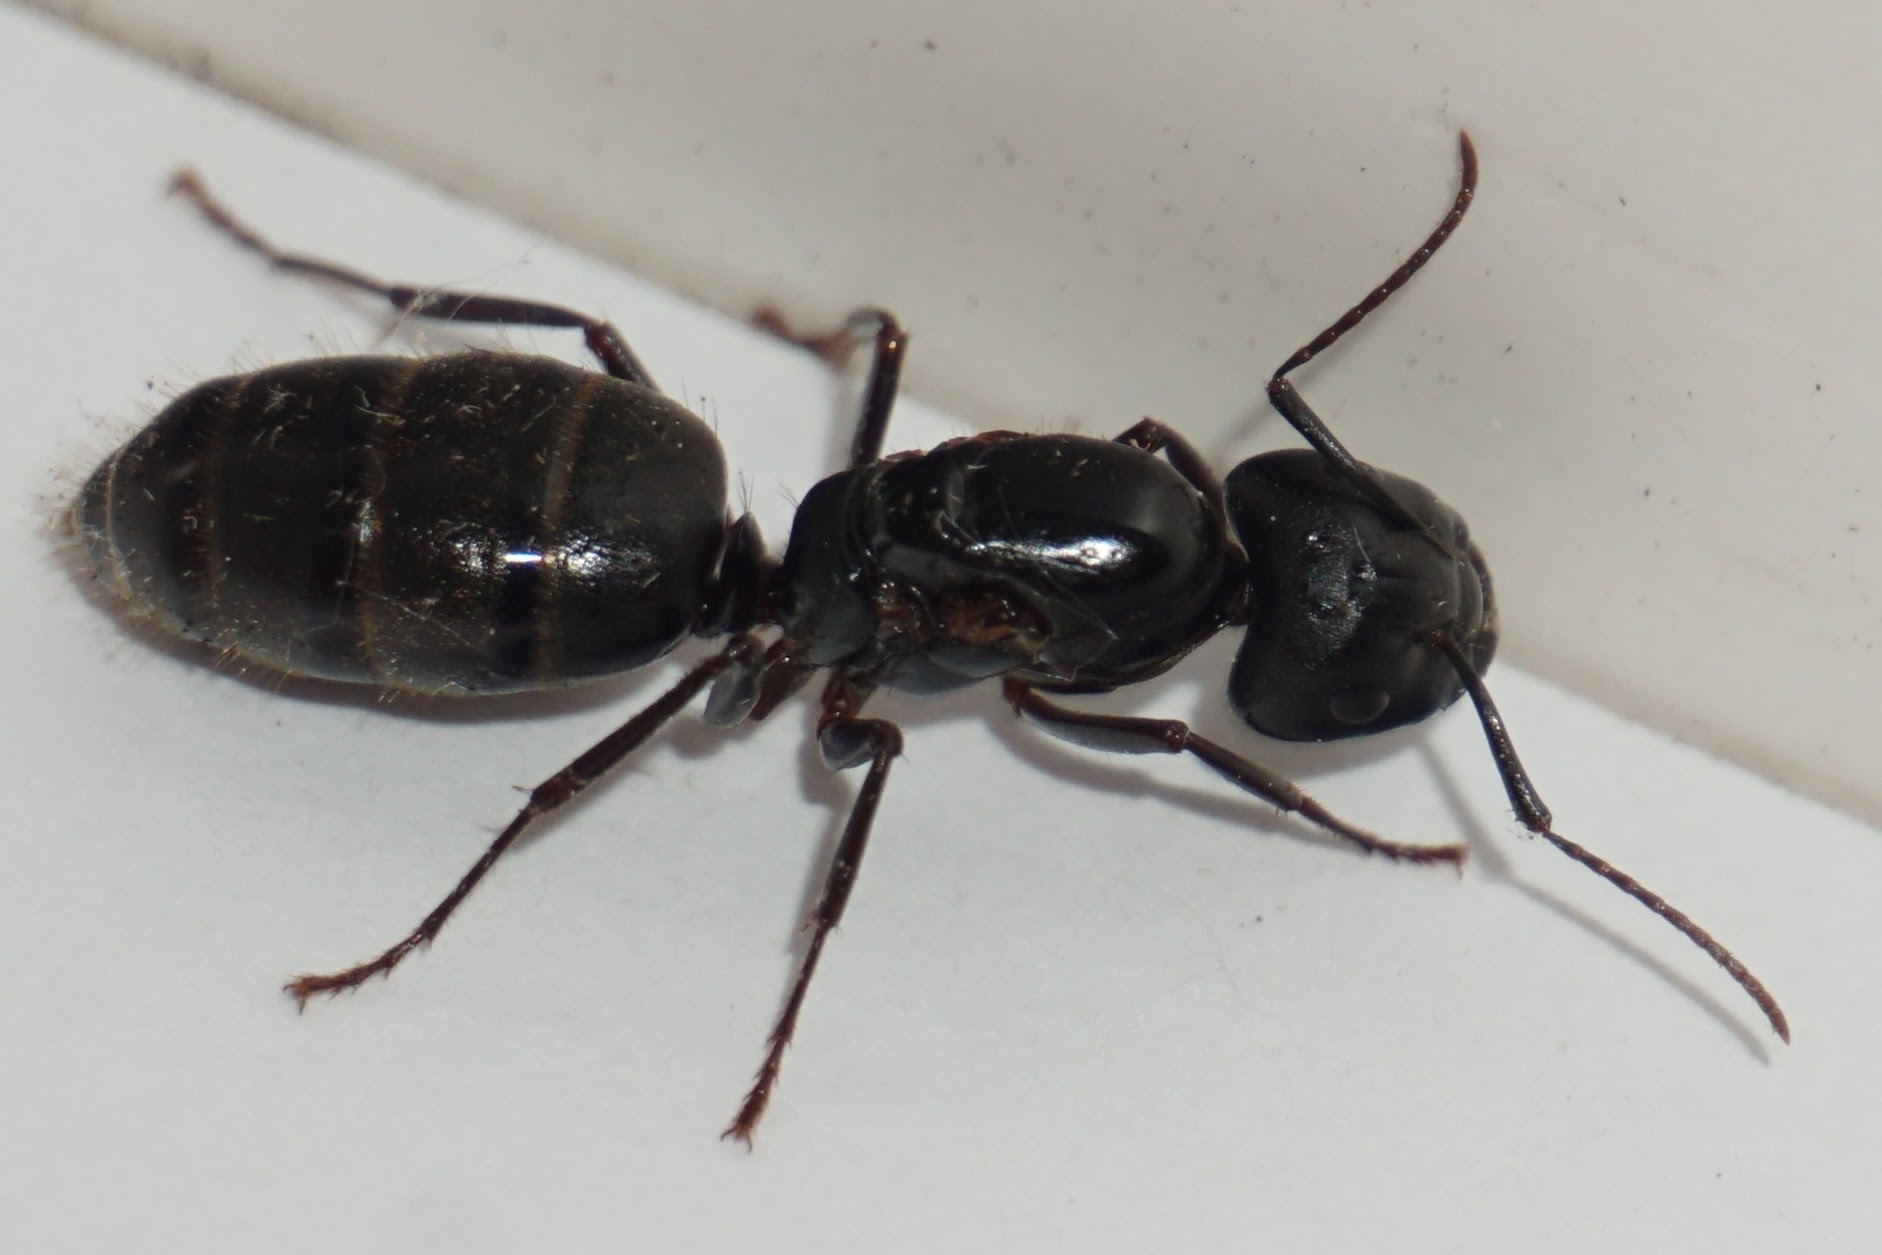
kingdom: Animalia
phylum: Arthropoda
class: Insecta
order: Hymenoptera
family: Formicidae
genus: Camponotus
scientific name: Camponotus pennsylvanicus
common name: Black carpenter ant
